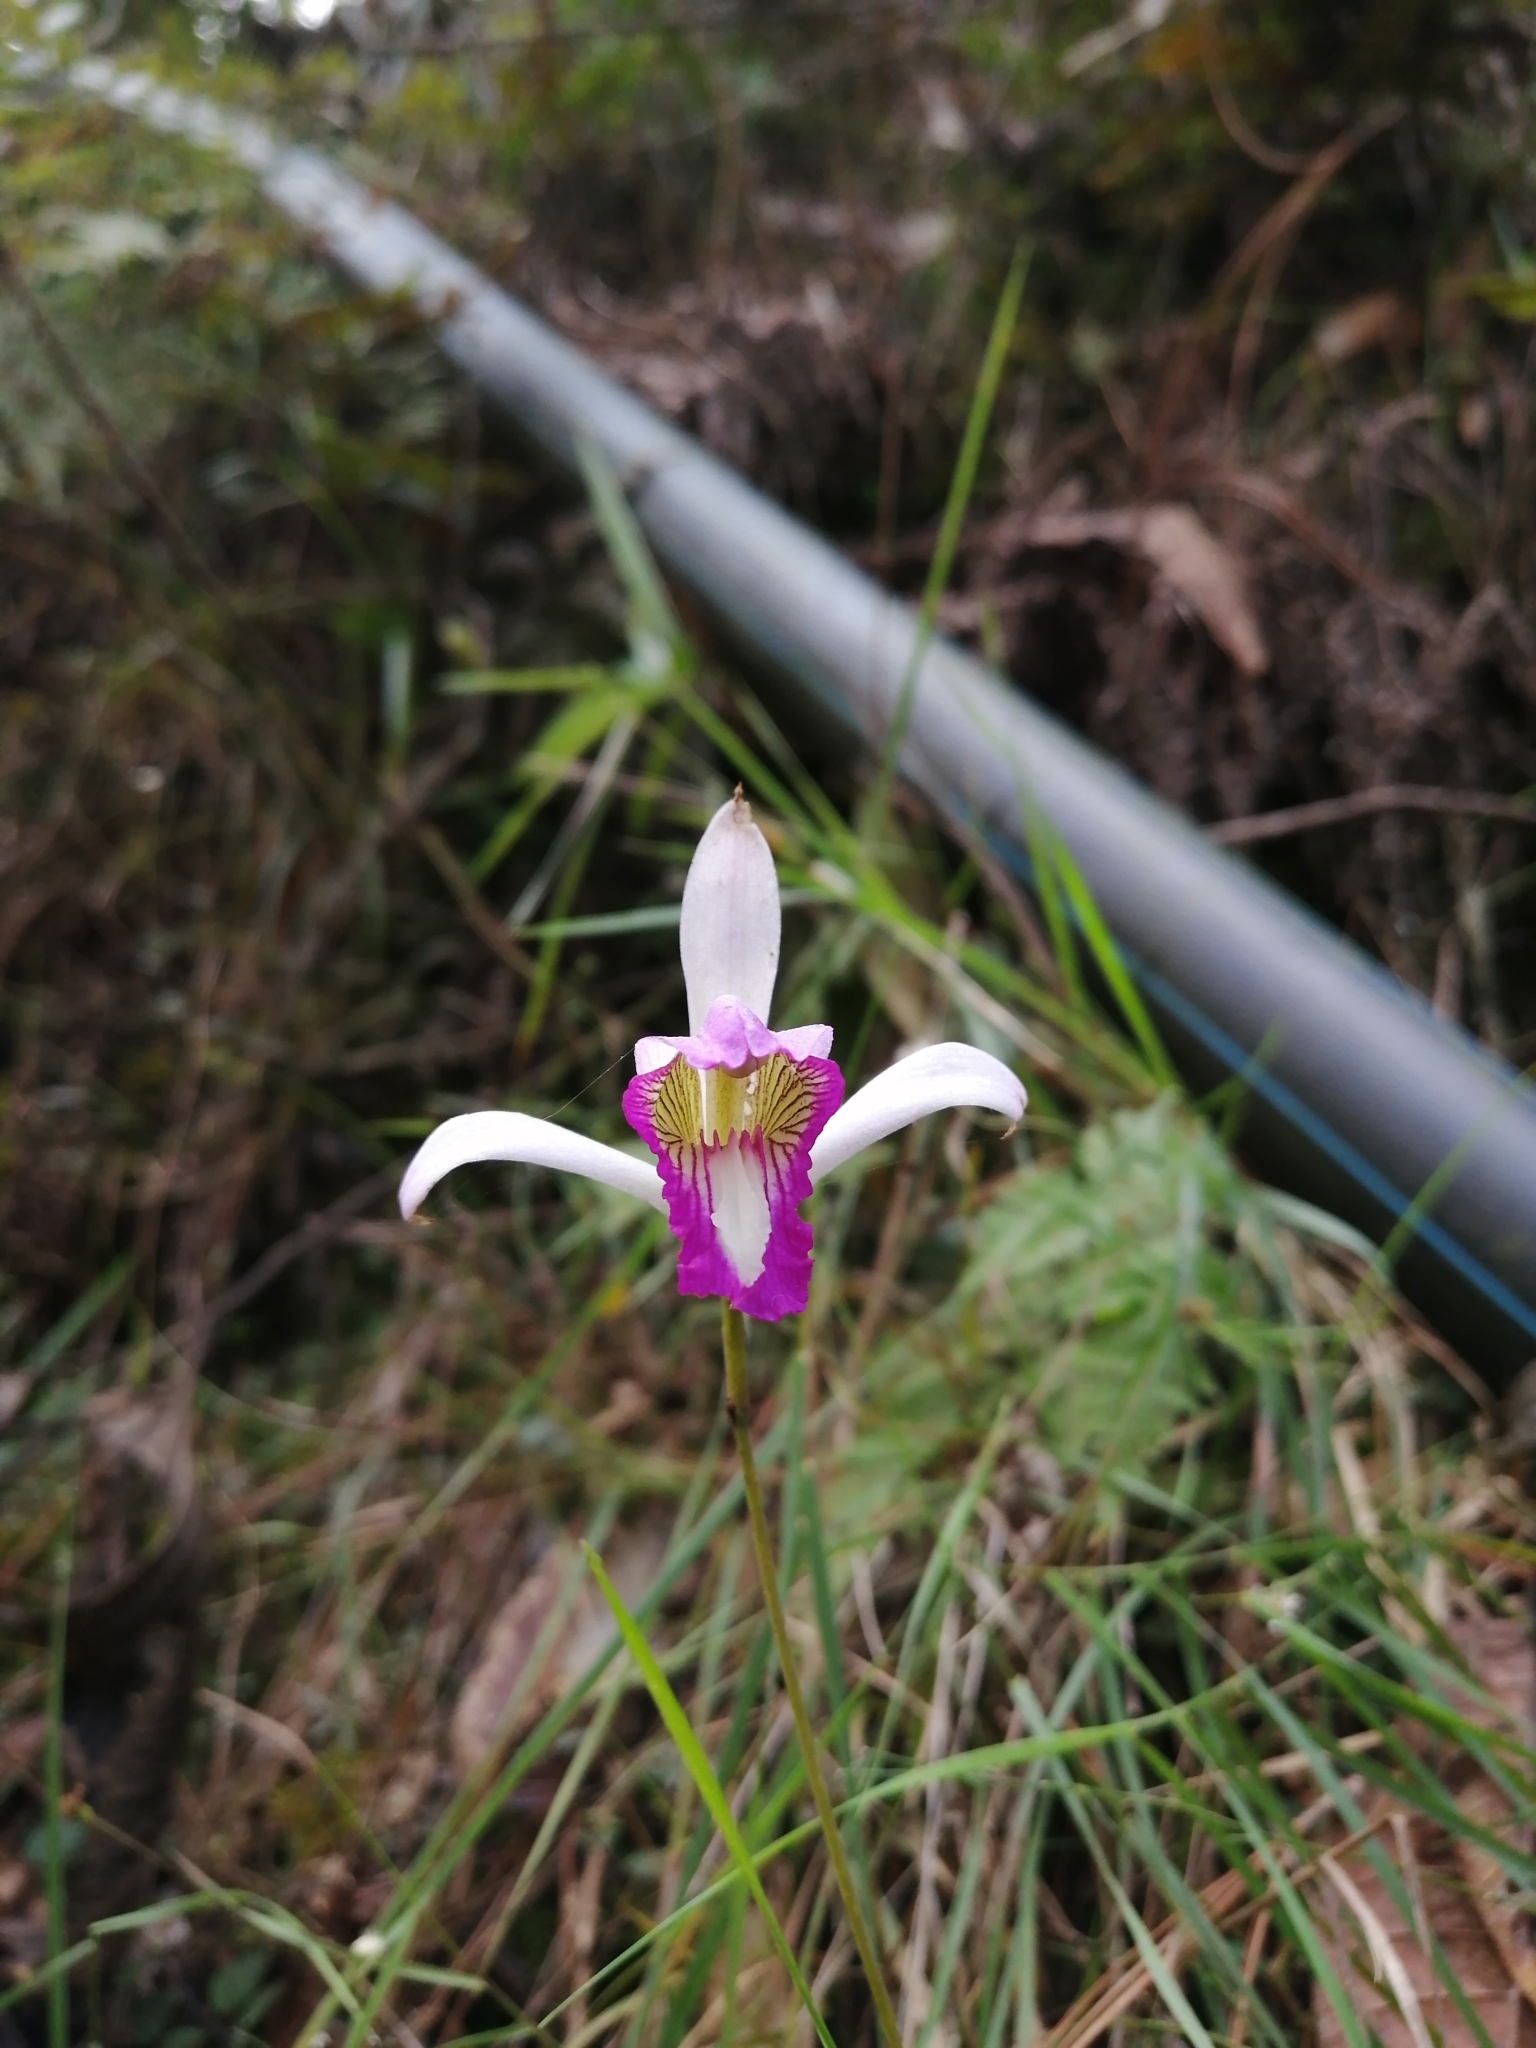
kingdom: Plantae
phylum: Tracheophyta
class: Liliopsida
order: Asparagales
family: Orchidaceae
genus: Bletia
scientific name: Bletia warfordiana
